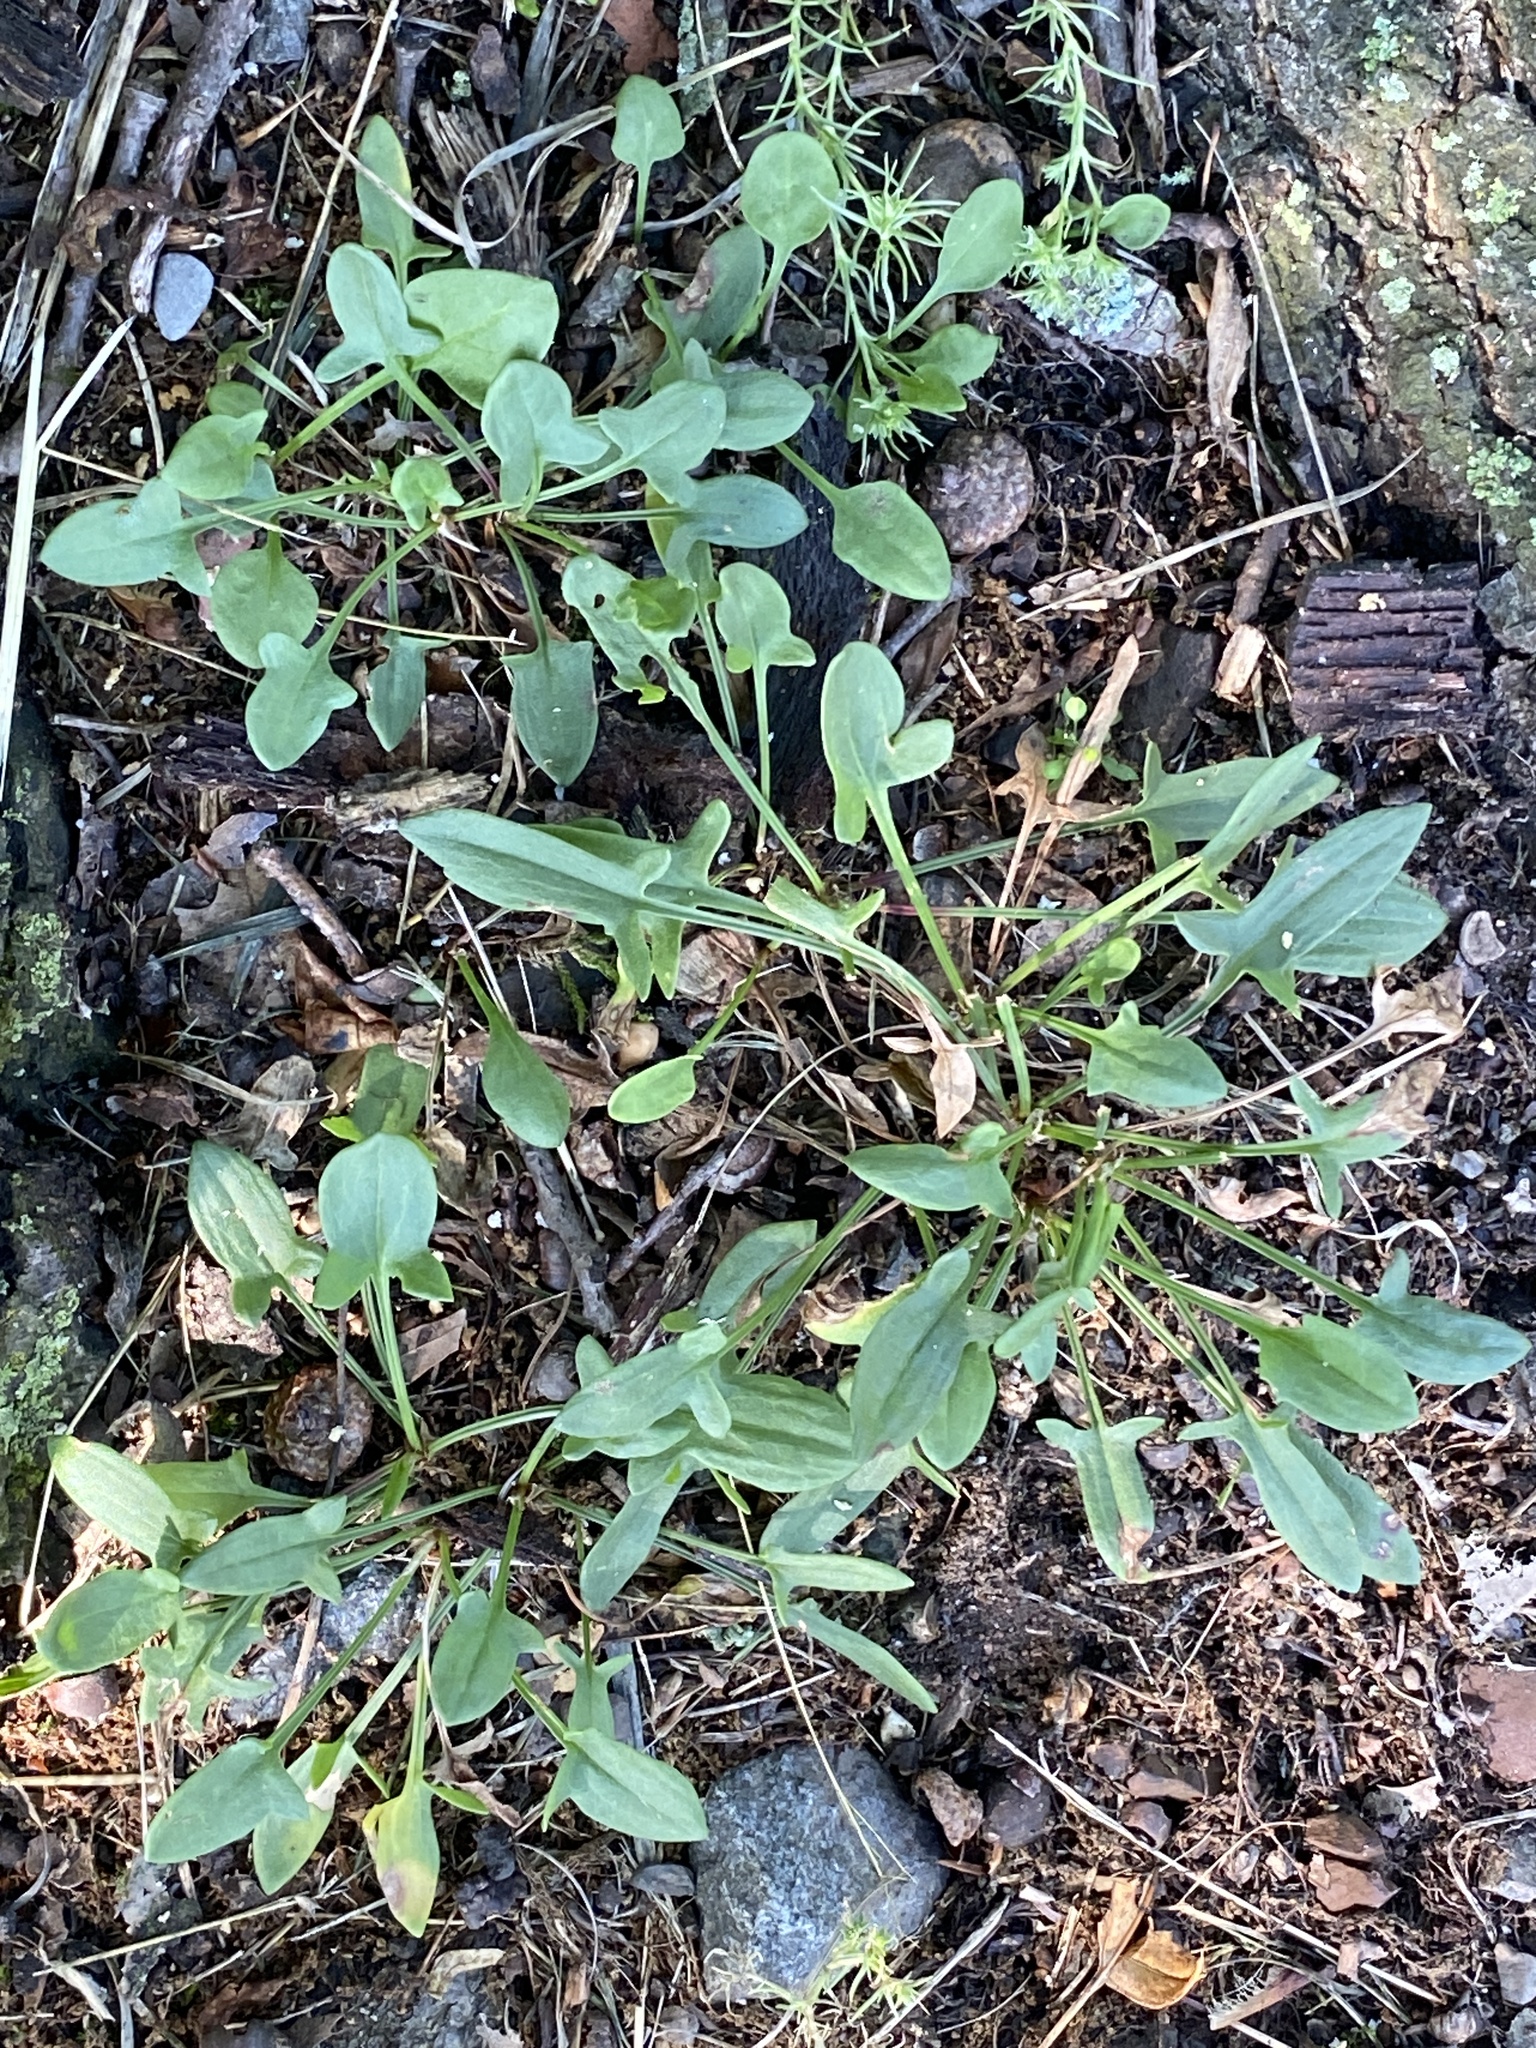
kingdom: Plantae
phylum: Tracheophyta
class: Magnoliopsida
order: Caryophyllales
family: Polygonaceae
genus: Rumex
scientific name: Rumex acetosella
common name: Common sheep sorrel
